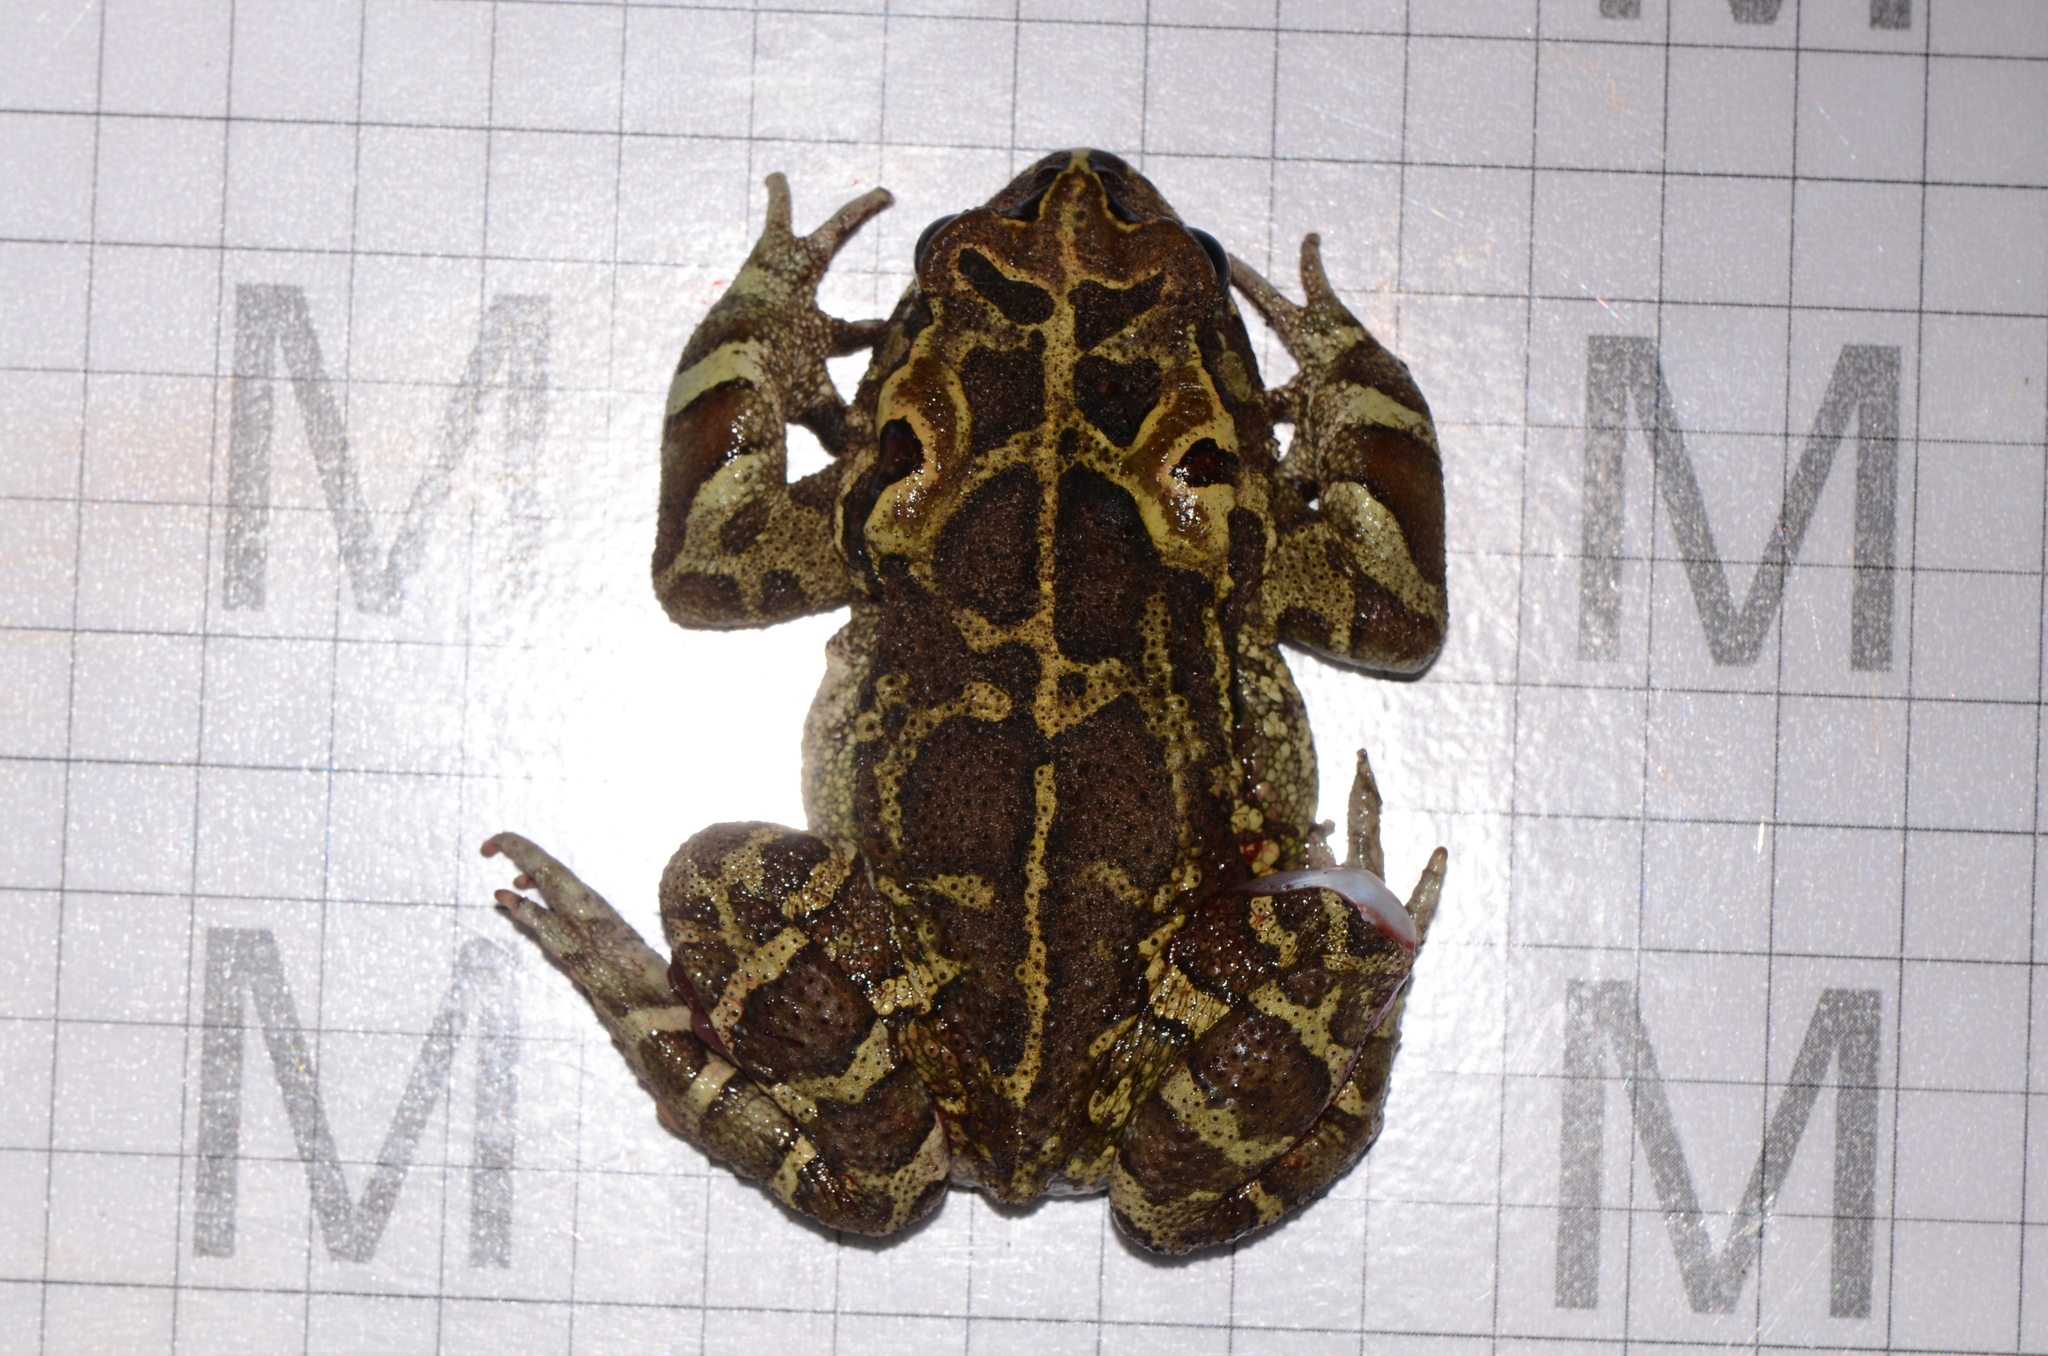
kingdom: Animalia
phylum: Chordata
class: Amphibia
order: Anura
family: Bufonidae
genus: Sclerophrys
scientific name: Sclerophrys pantherina
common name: Panther toad
